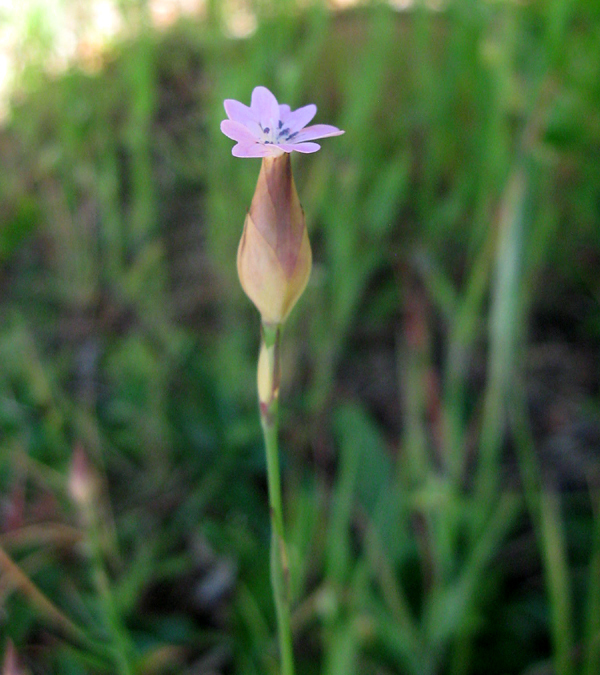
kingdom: Plantae
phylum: Tracheophyta
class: Magnoliopsida
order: Caryophyllales
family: Caryophyllaceae
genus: Petrorhagia
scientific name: Petrorhagia dubia
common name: Hairypink
